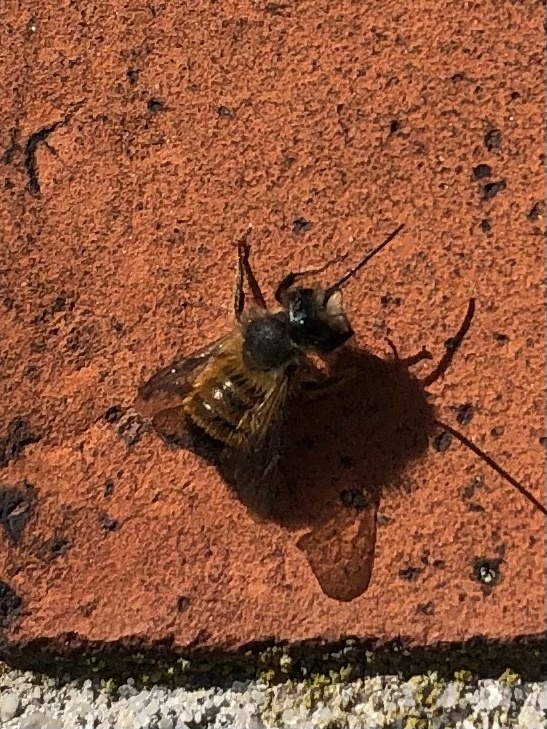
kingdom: Animalia
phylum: Arthropoda
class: Insecta
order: Hymenoptera
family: Megachilidae
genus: Osmia
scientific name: Osmia bicornis
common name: Red mason bee
